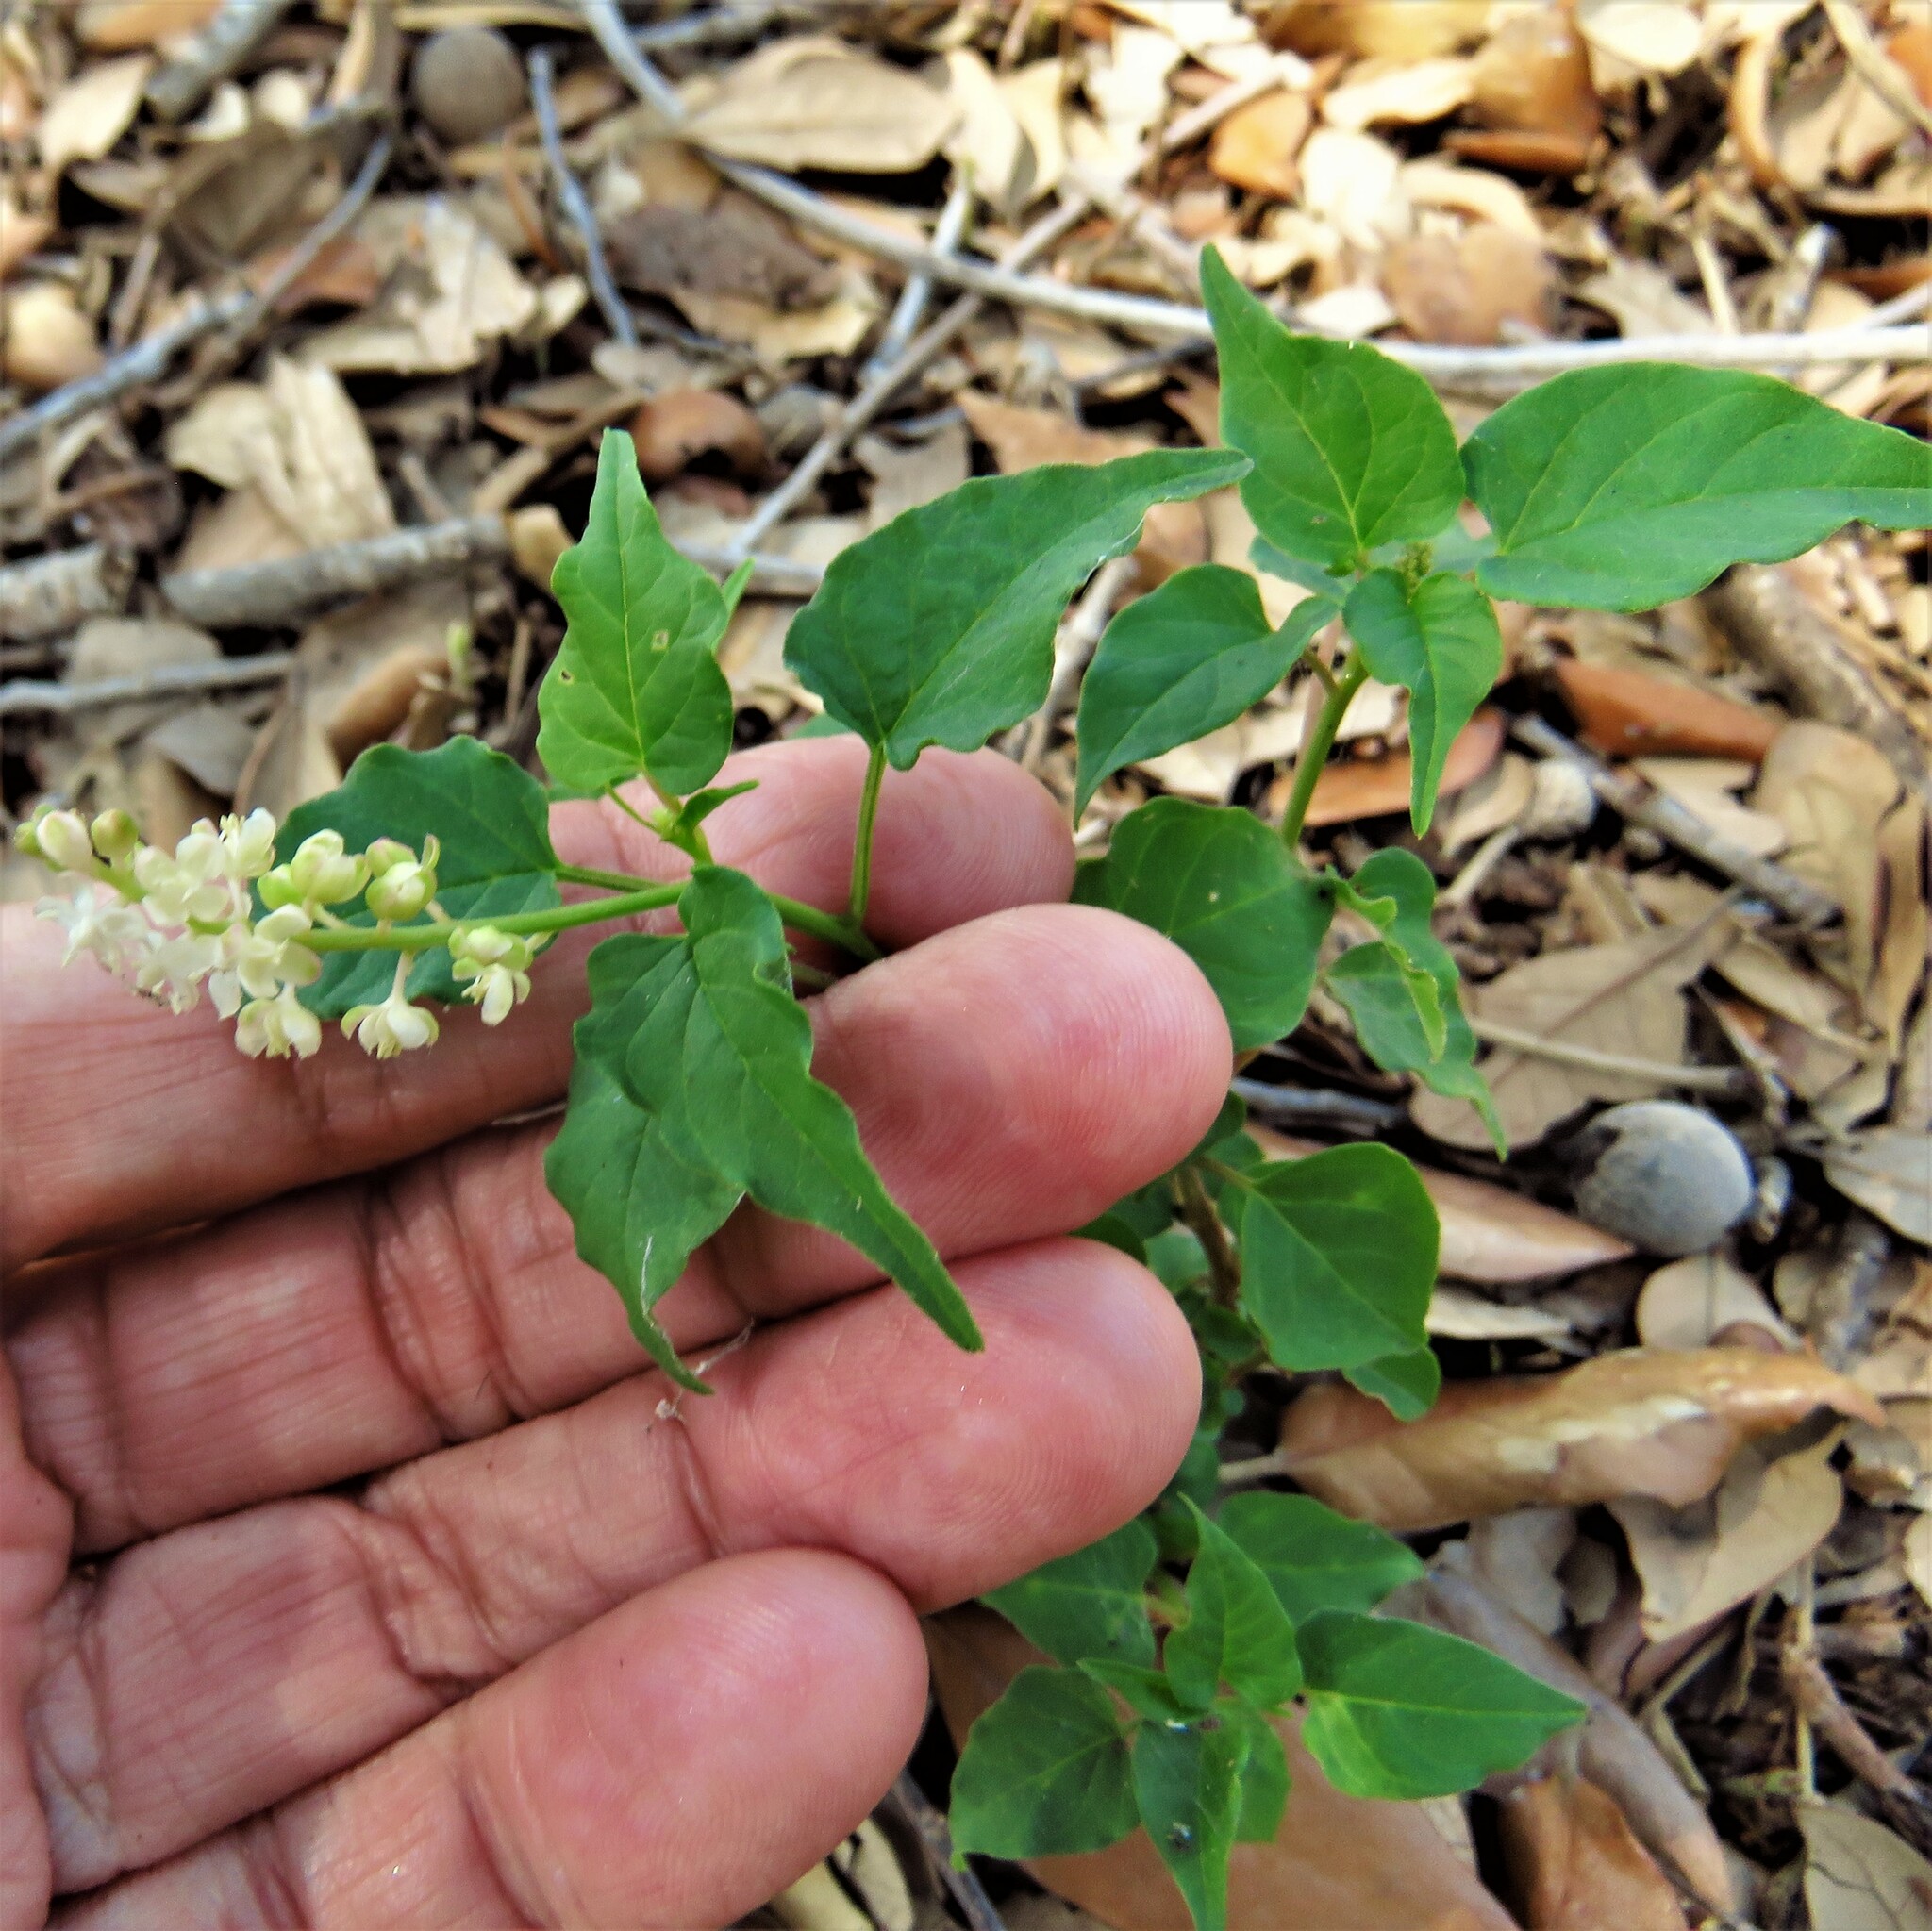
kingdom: Plantae
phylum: Tracheophyta
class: Magnoliopsida
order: Caryophyllales
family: Phytolaccaceae
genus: Rivina
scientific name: Rivina humilis
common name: Rougeplant
